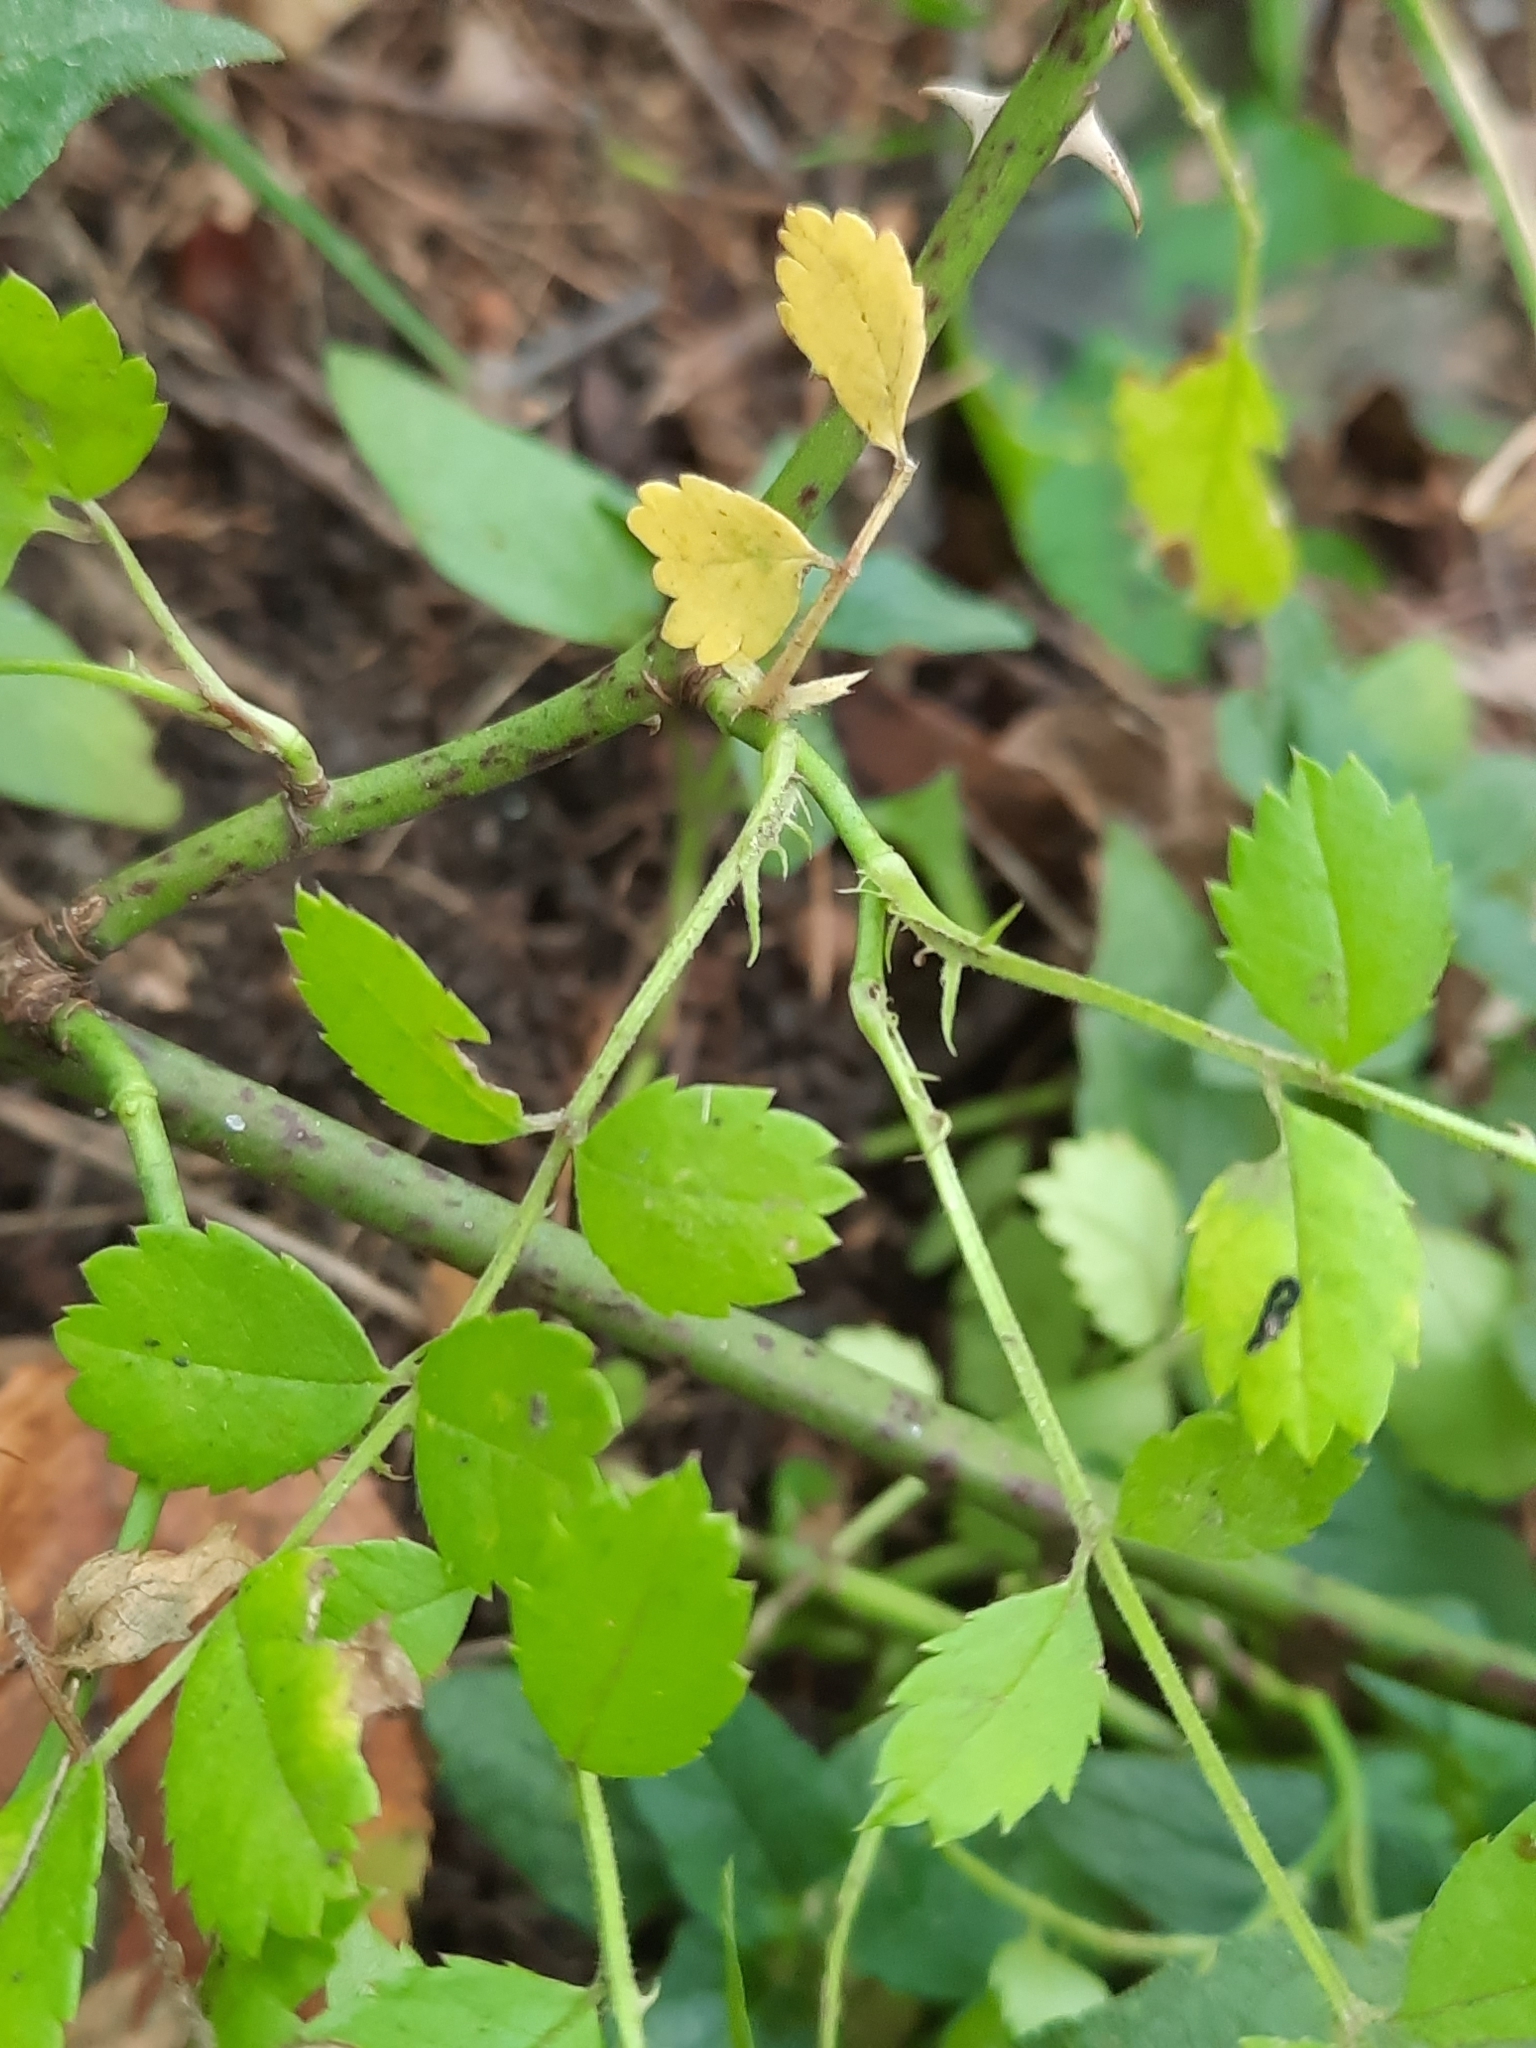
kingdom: Plantae
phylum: Tracheophyta
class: Magnoliopsida
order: Rosales
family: Rosaceae
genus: Rosa
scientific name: Rosa multiflora
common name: Multiflora rose
